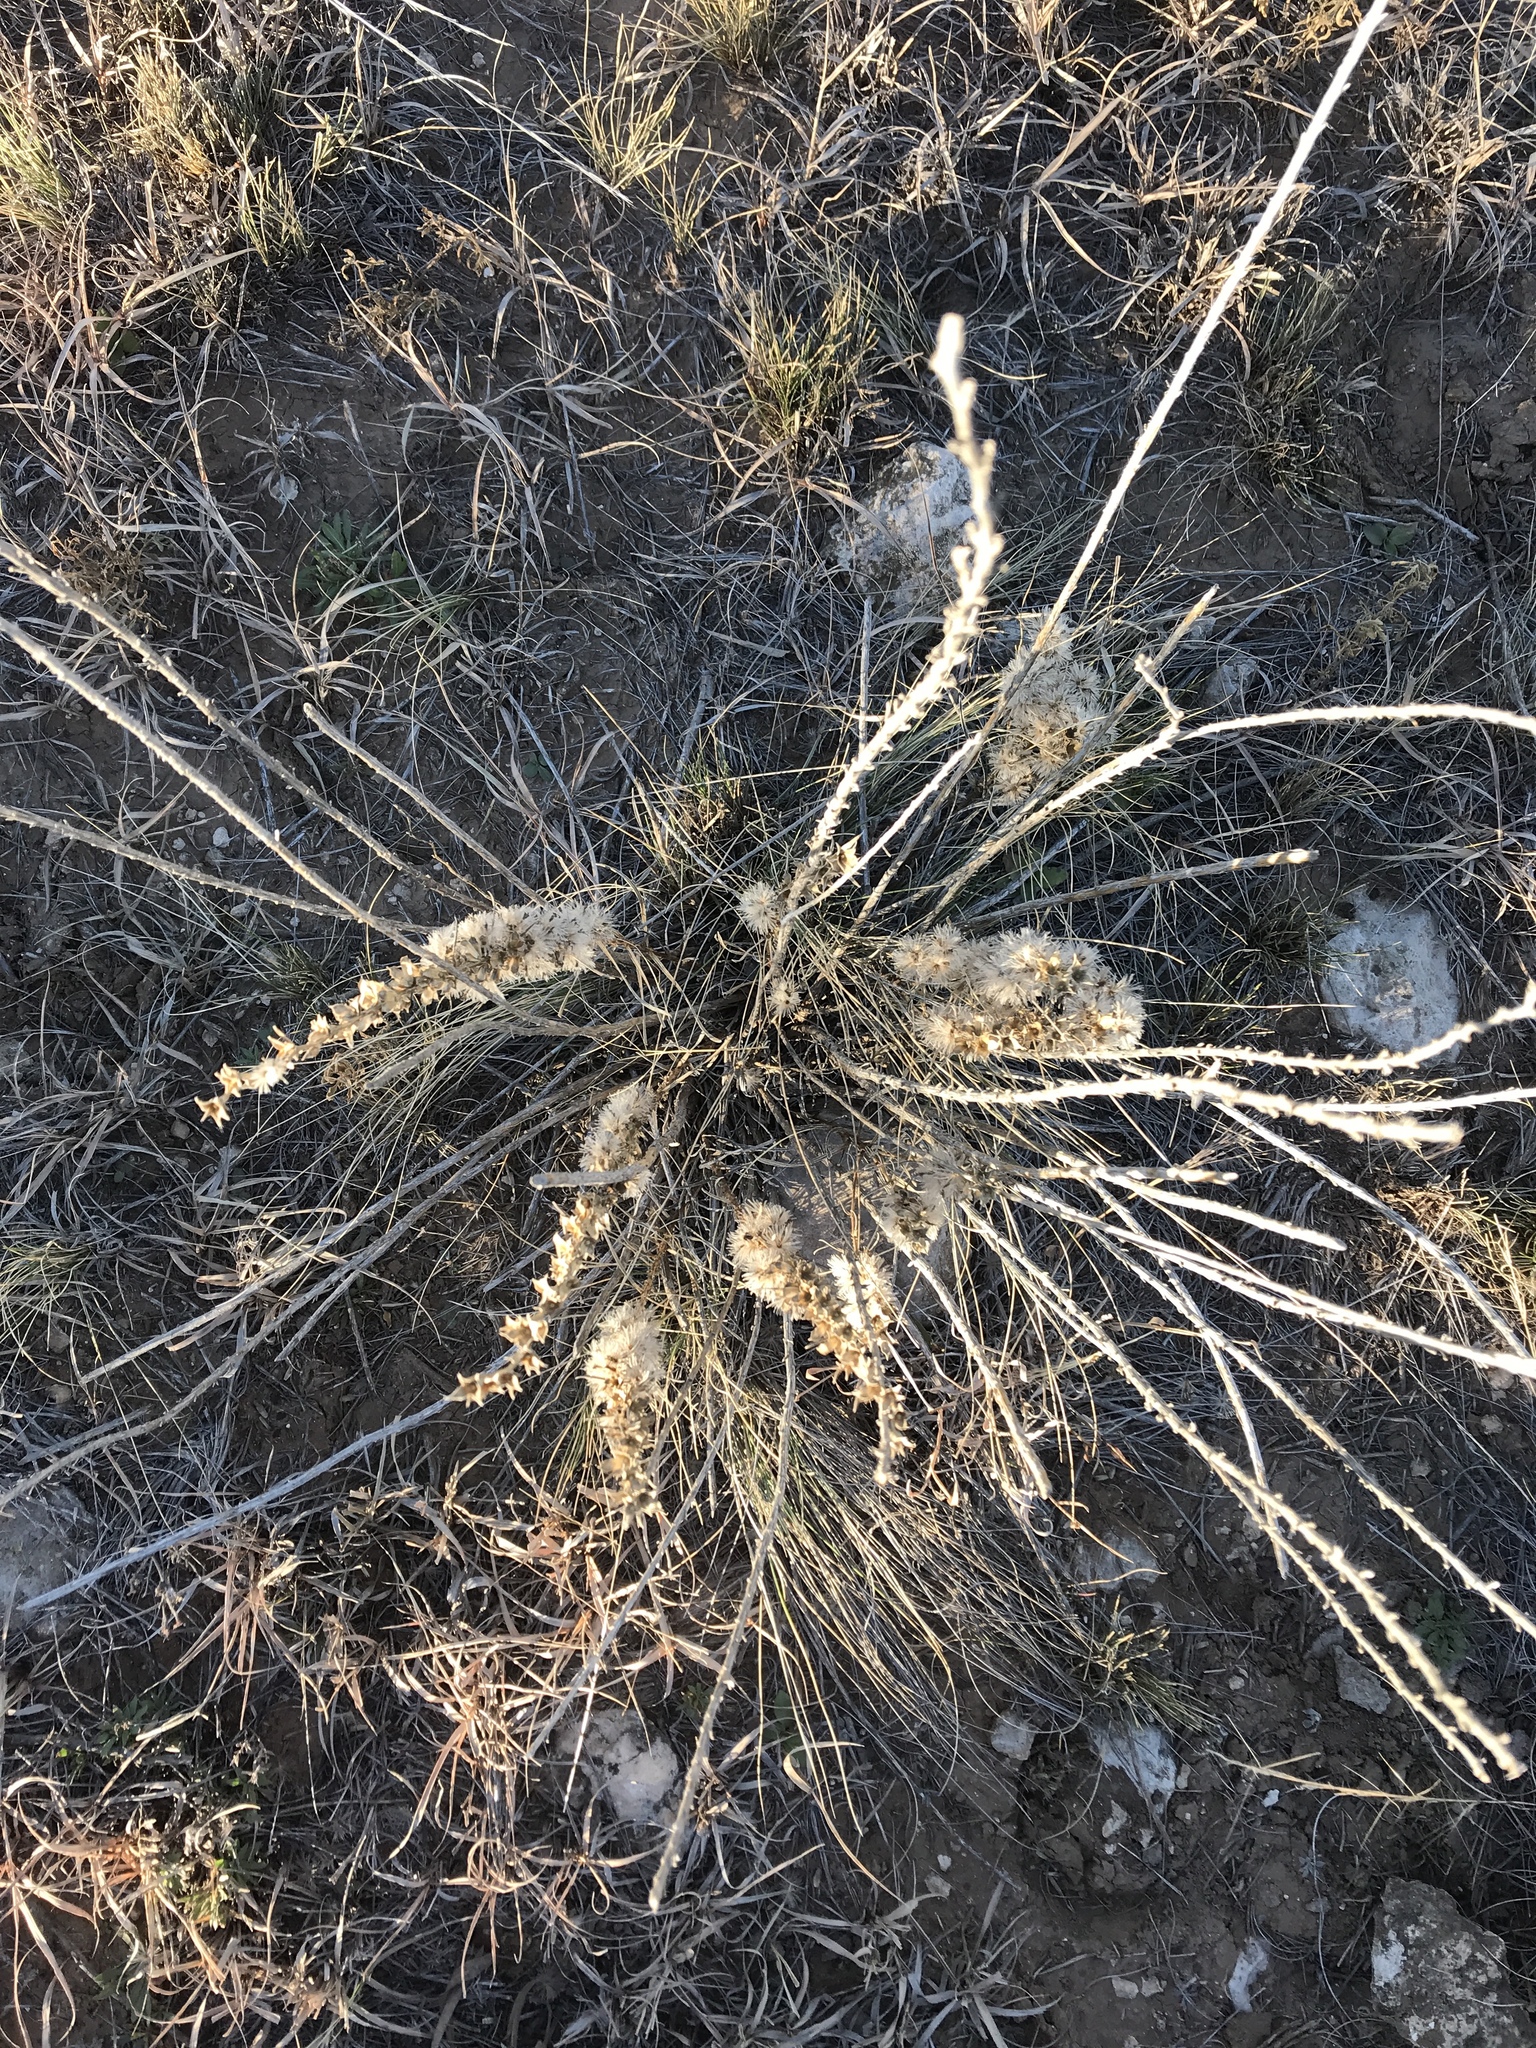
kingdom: Plantae
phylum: Tracheophyta
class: Magnoliopsida
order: Asterales
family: Asteraceae
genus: Liatris
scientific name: Liatris punctata
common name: Dotted gayfeather
